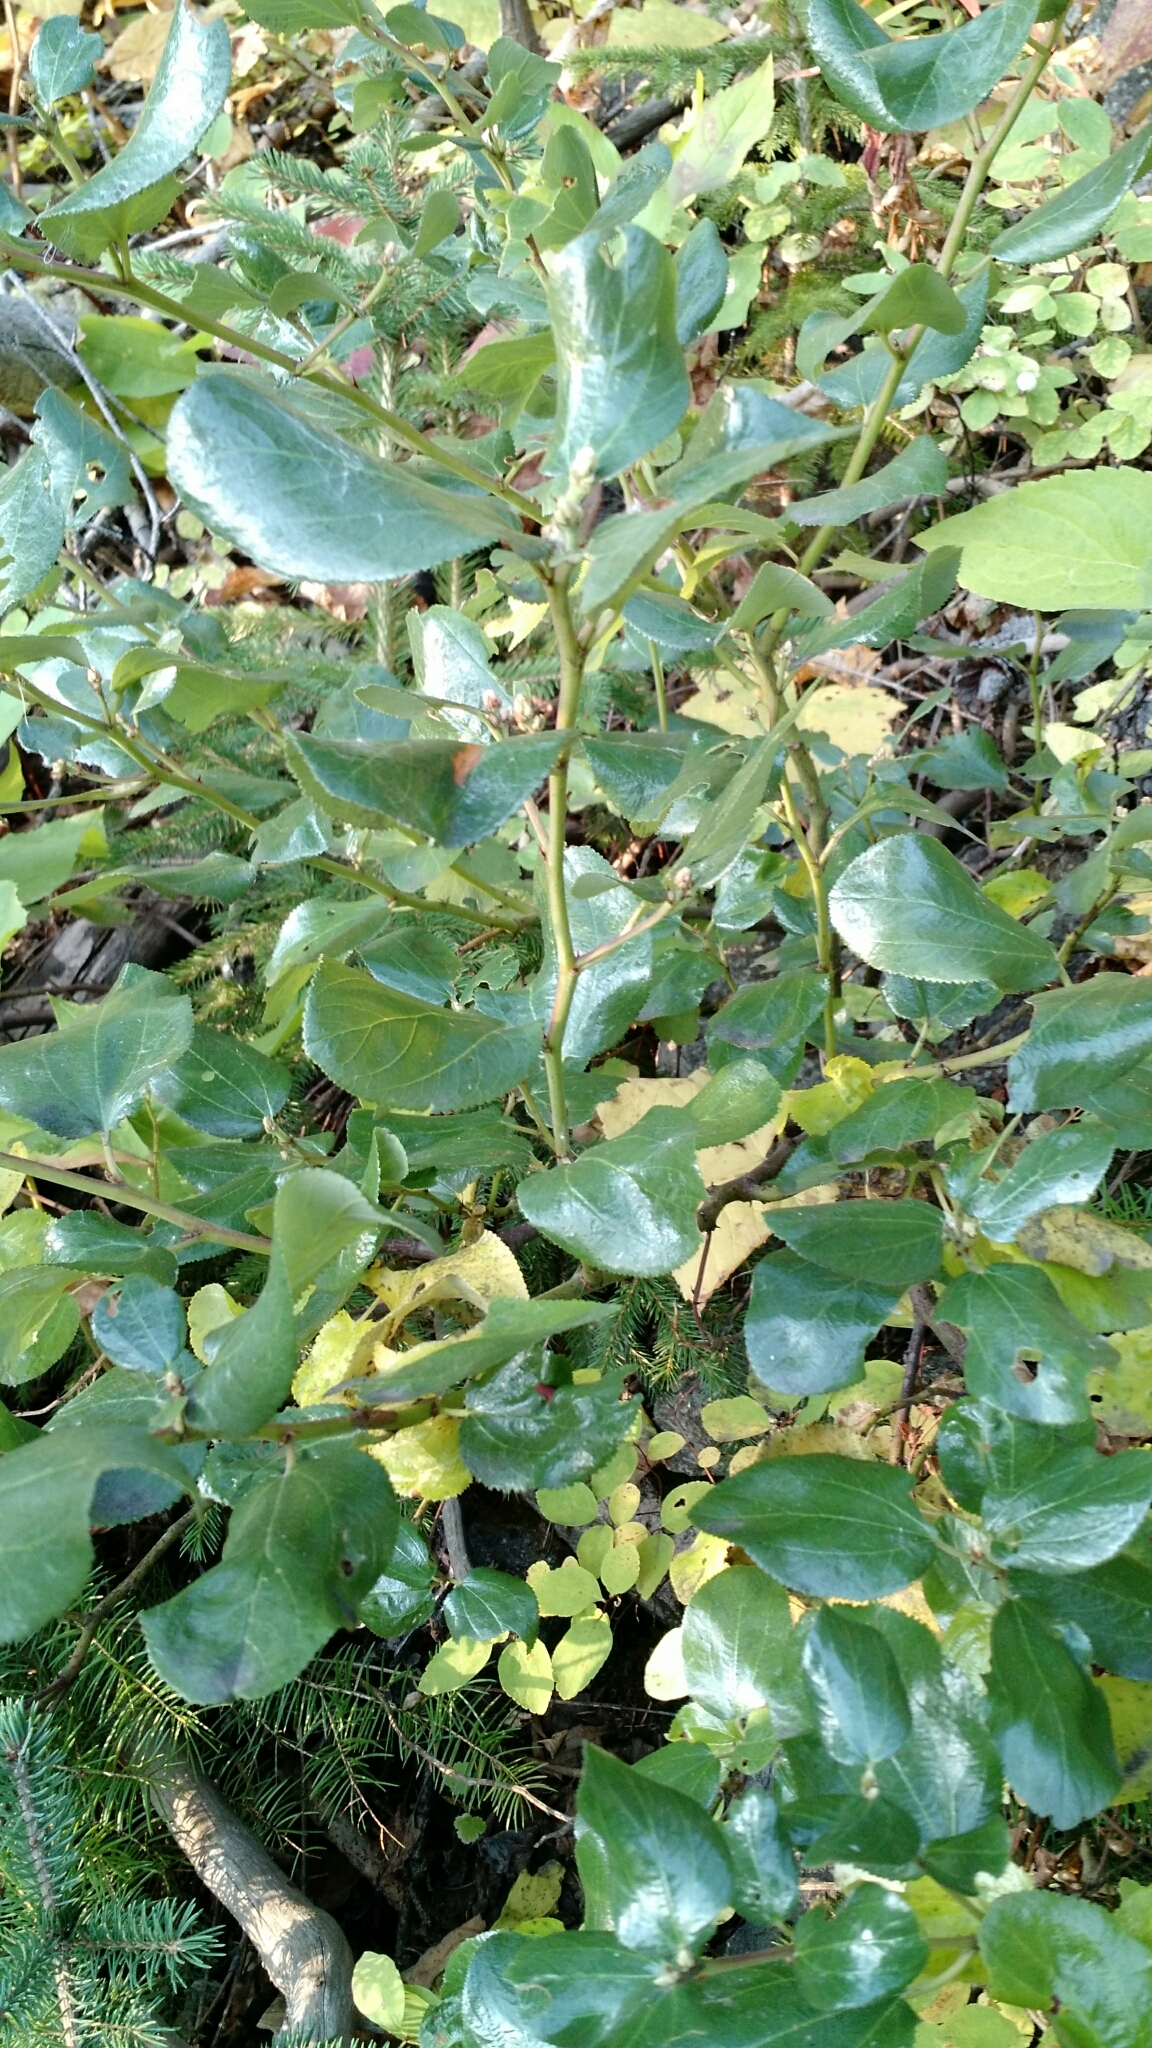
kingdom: Plantae
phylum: Tracheophyta
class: Magnoliopsida
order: Rosales
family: Rhamnaceae
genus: Ceanothus
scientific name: Ceanothus velutinus
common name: Snowbrush
